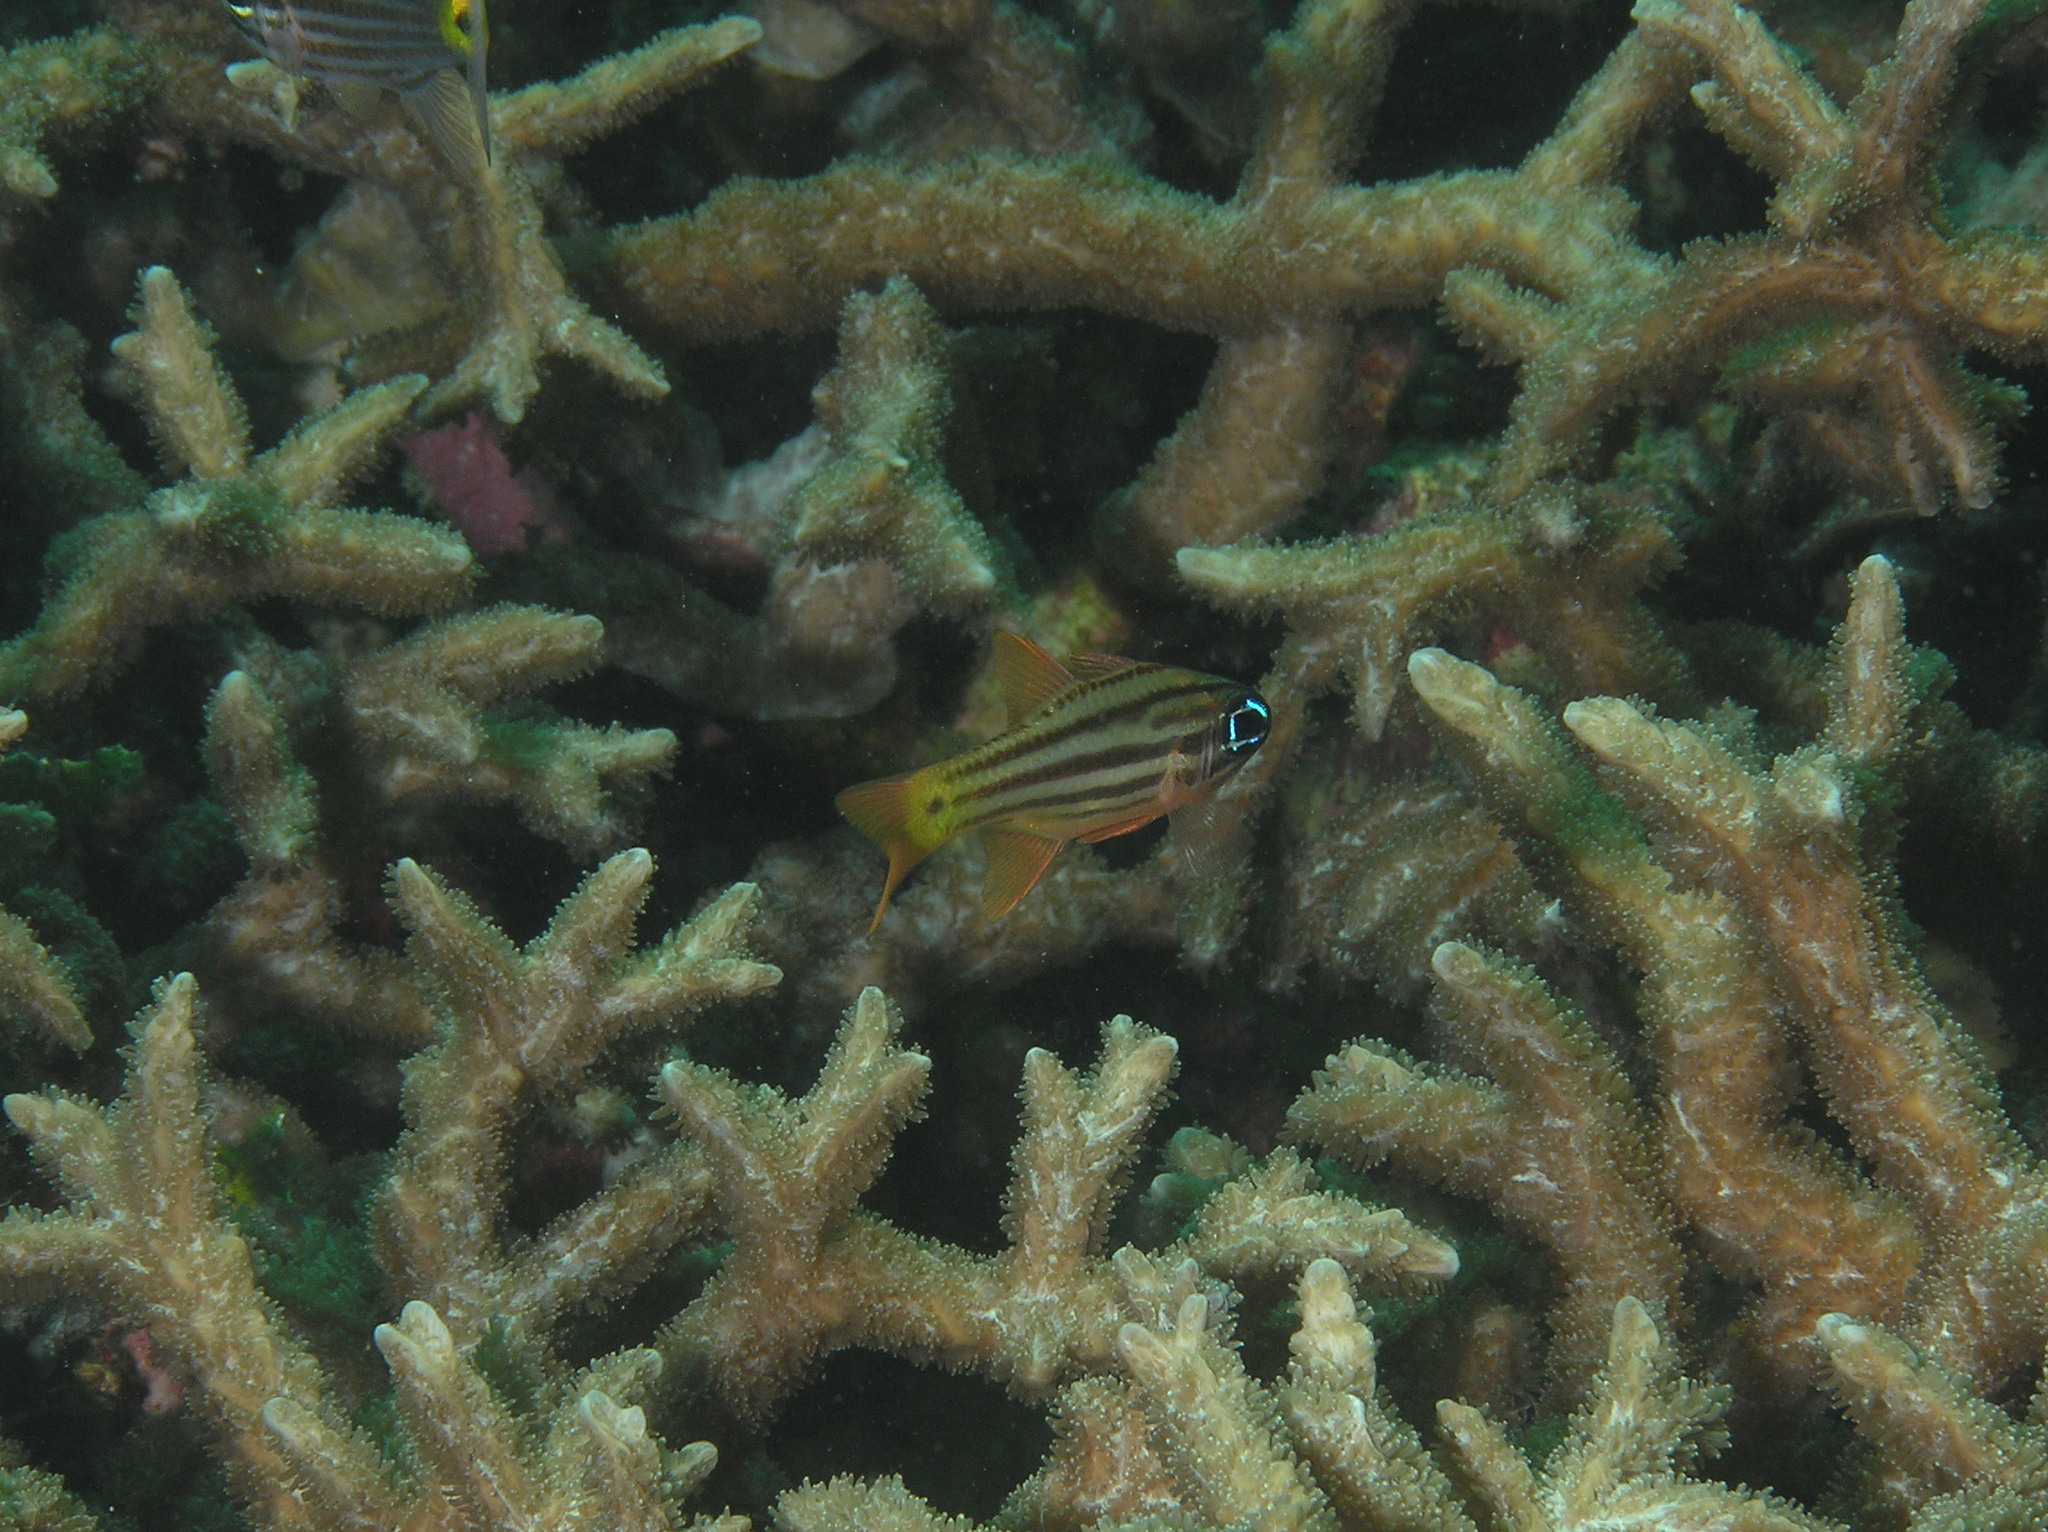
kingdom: Animalia
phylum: Chordata
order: Perciformes
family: Apogonidae
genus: Ostorhinchus
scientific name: Ostorhinchus compressus
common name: Ochre-striped cardinalfish
